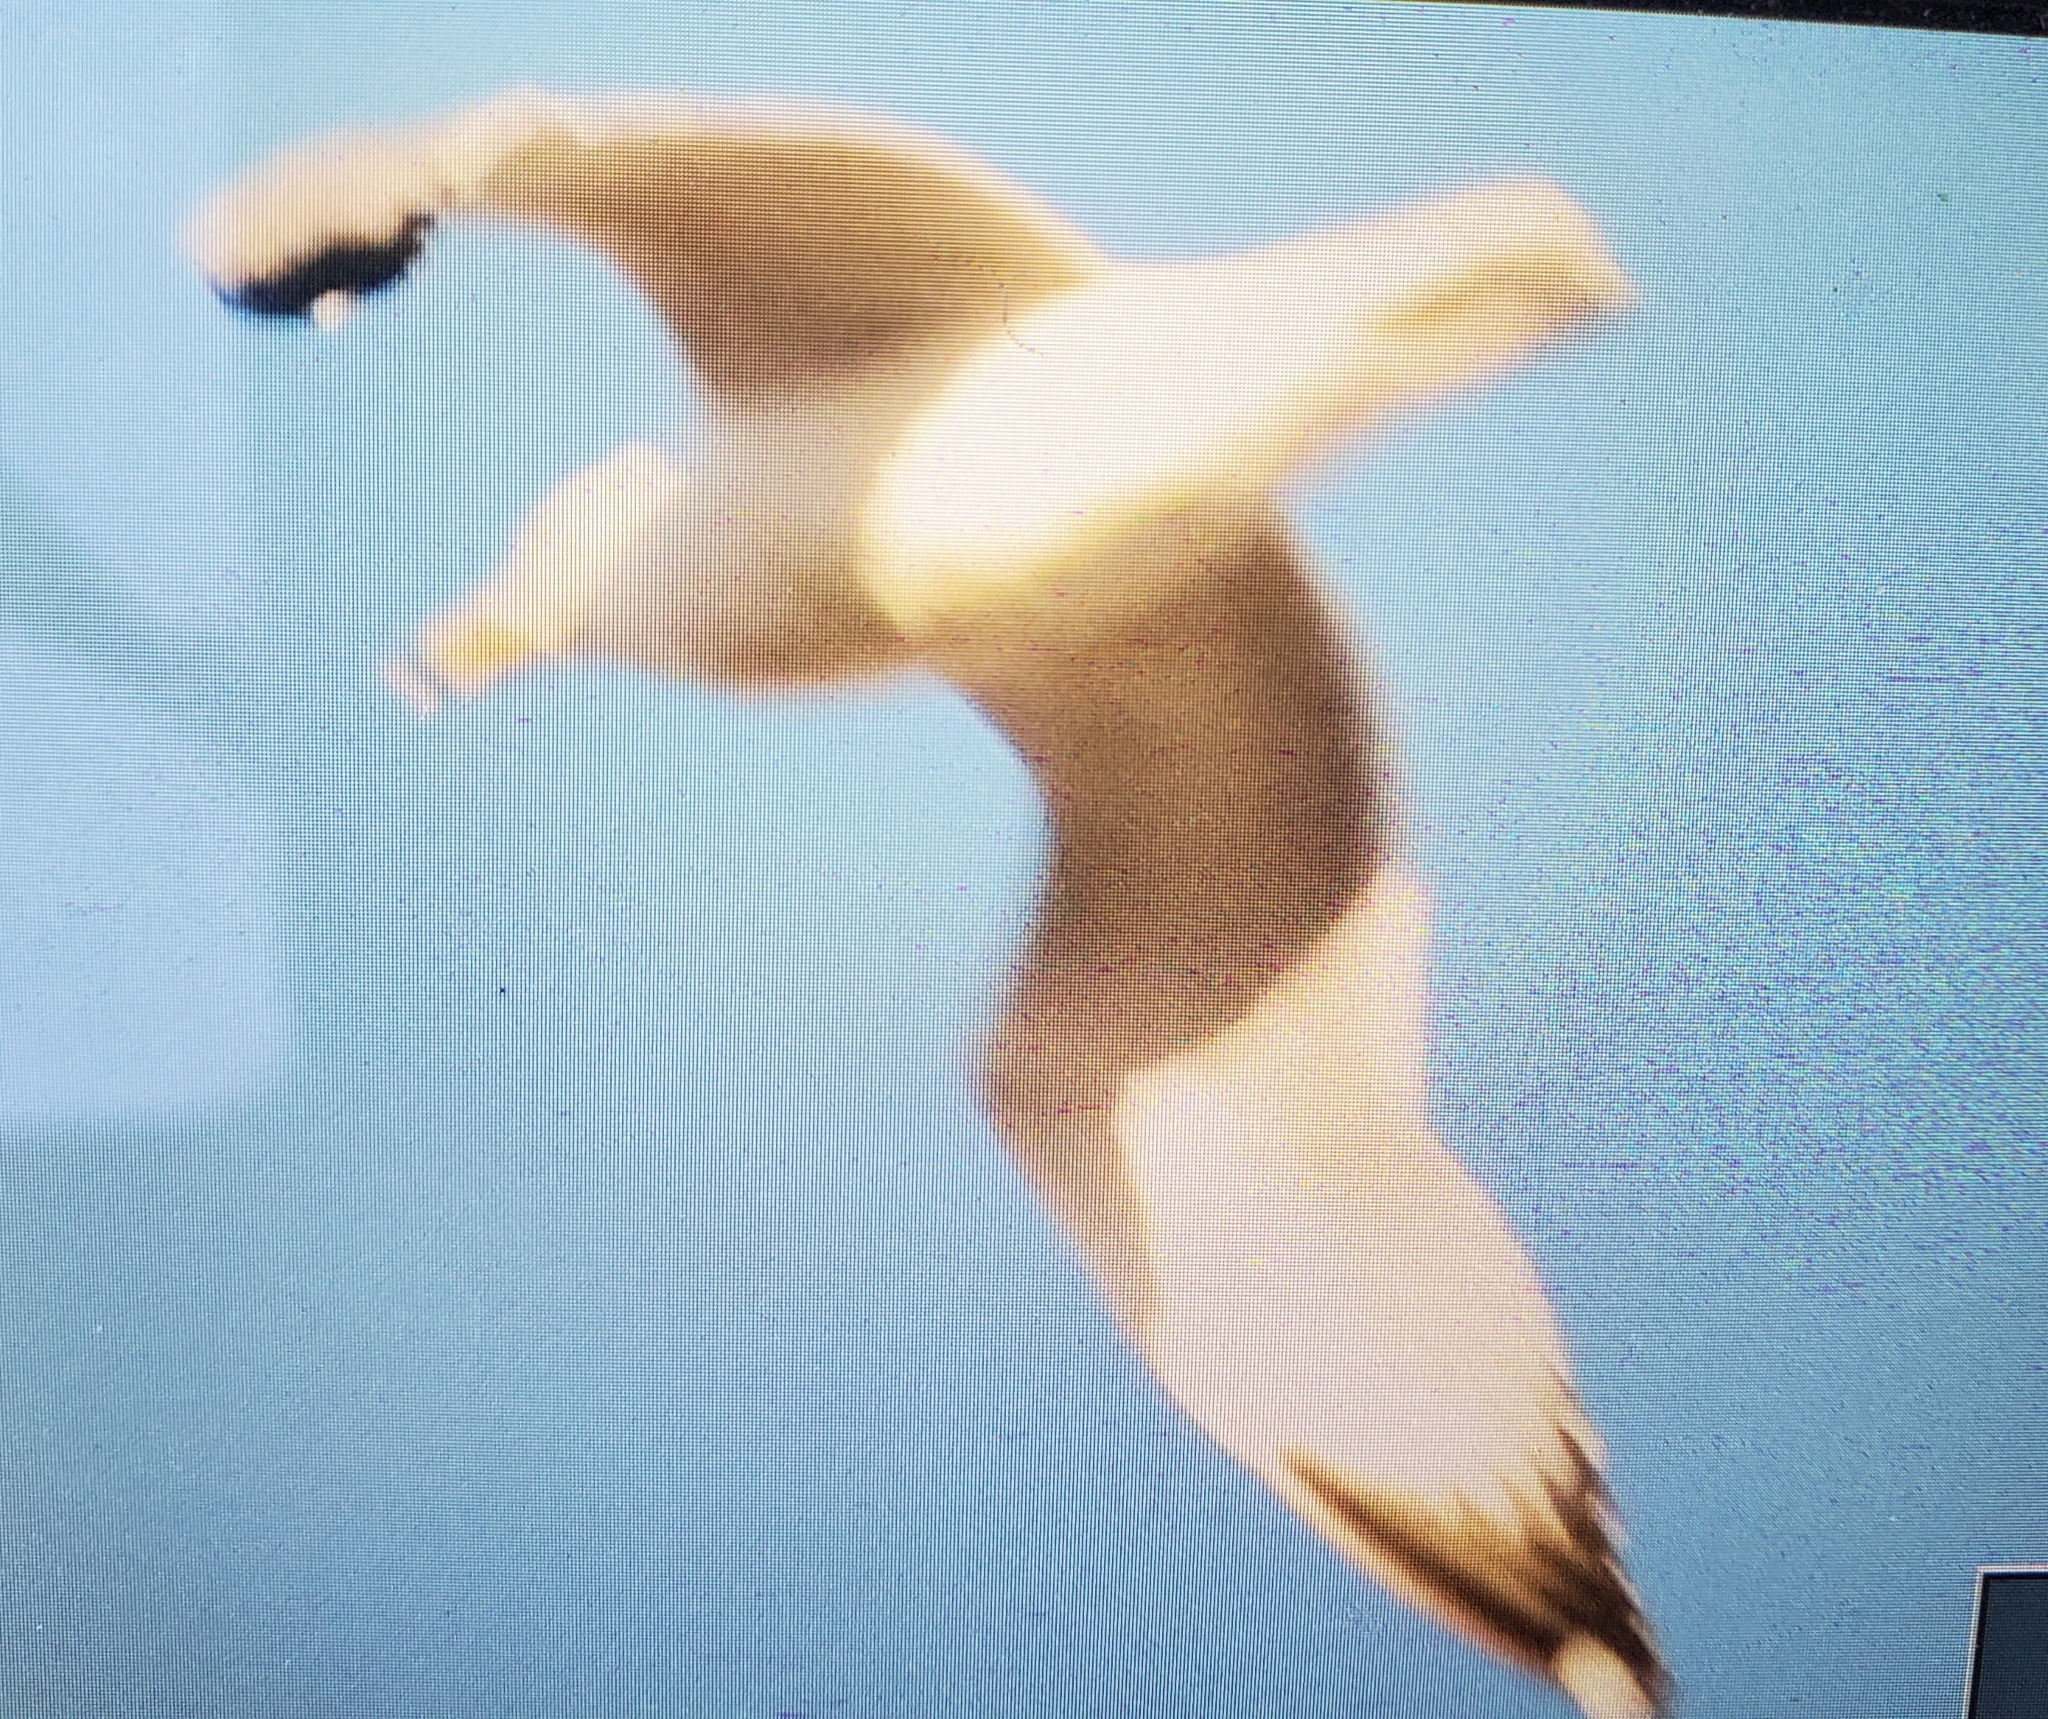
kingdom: Animalia
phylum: Chordata
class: Aves
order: Charadriiformes
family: Laridae
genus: Larus
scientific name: Larus delawarensis
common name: Ring-billed gull
